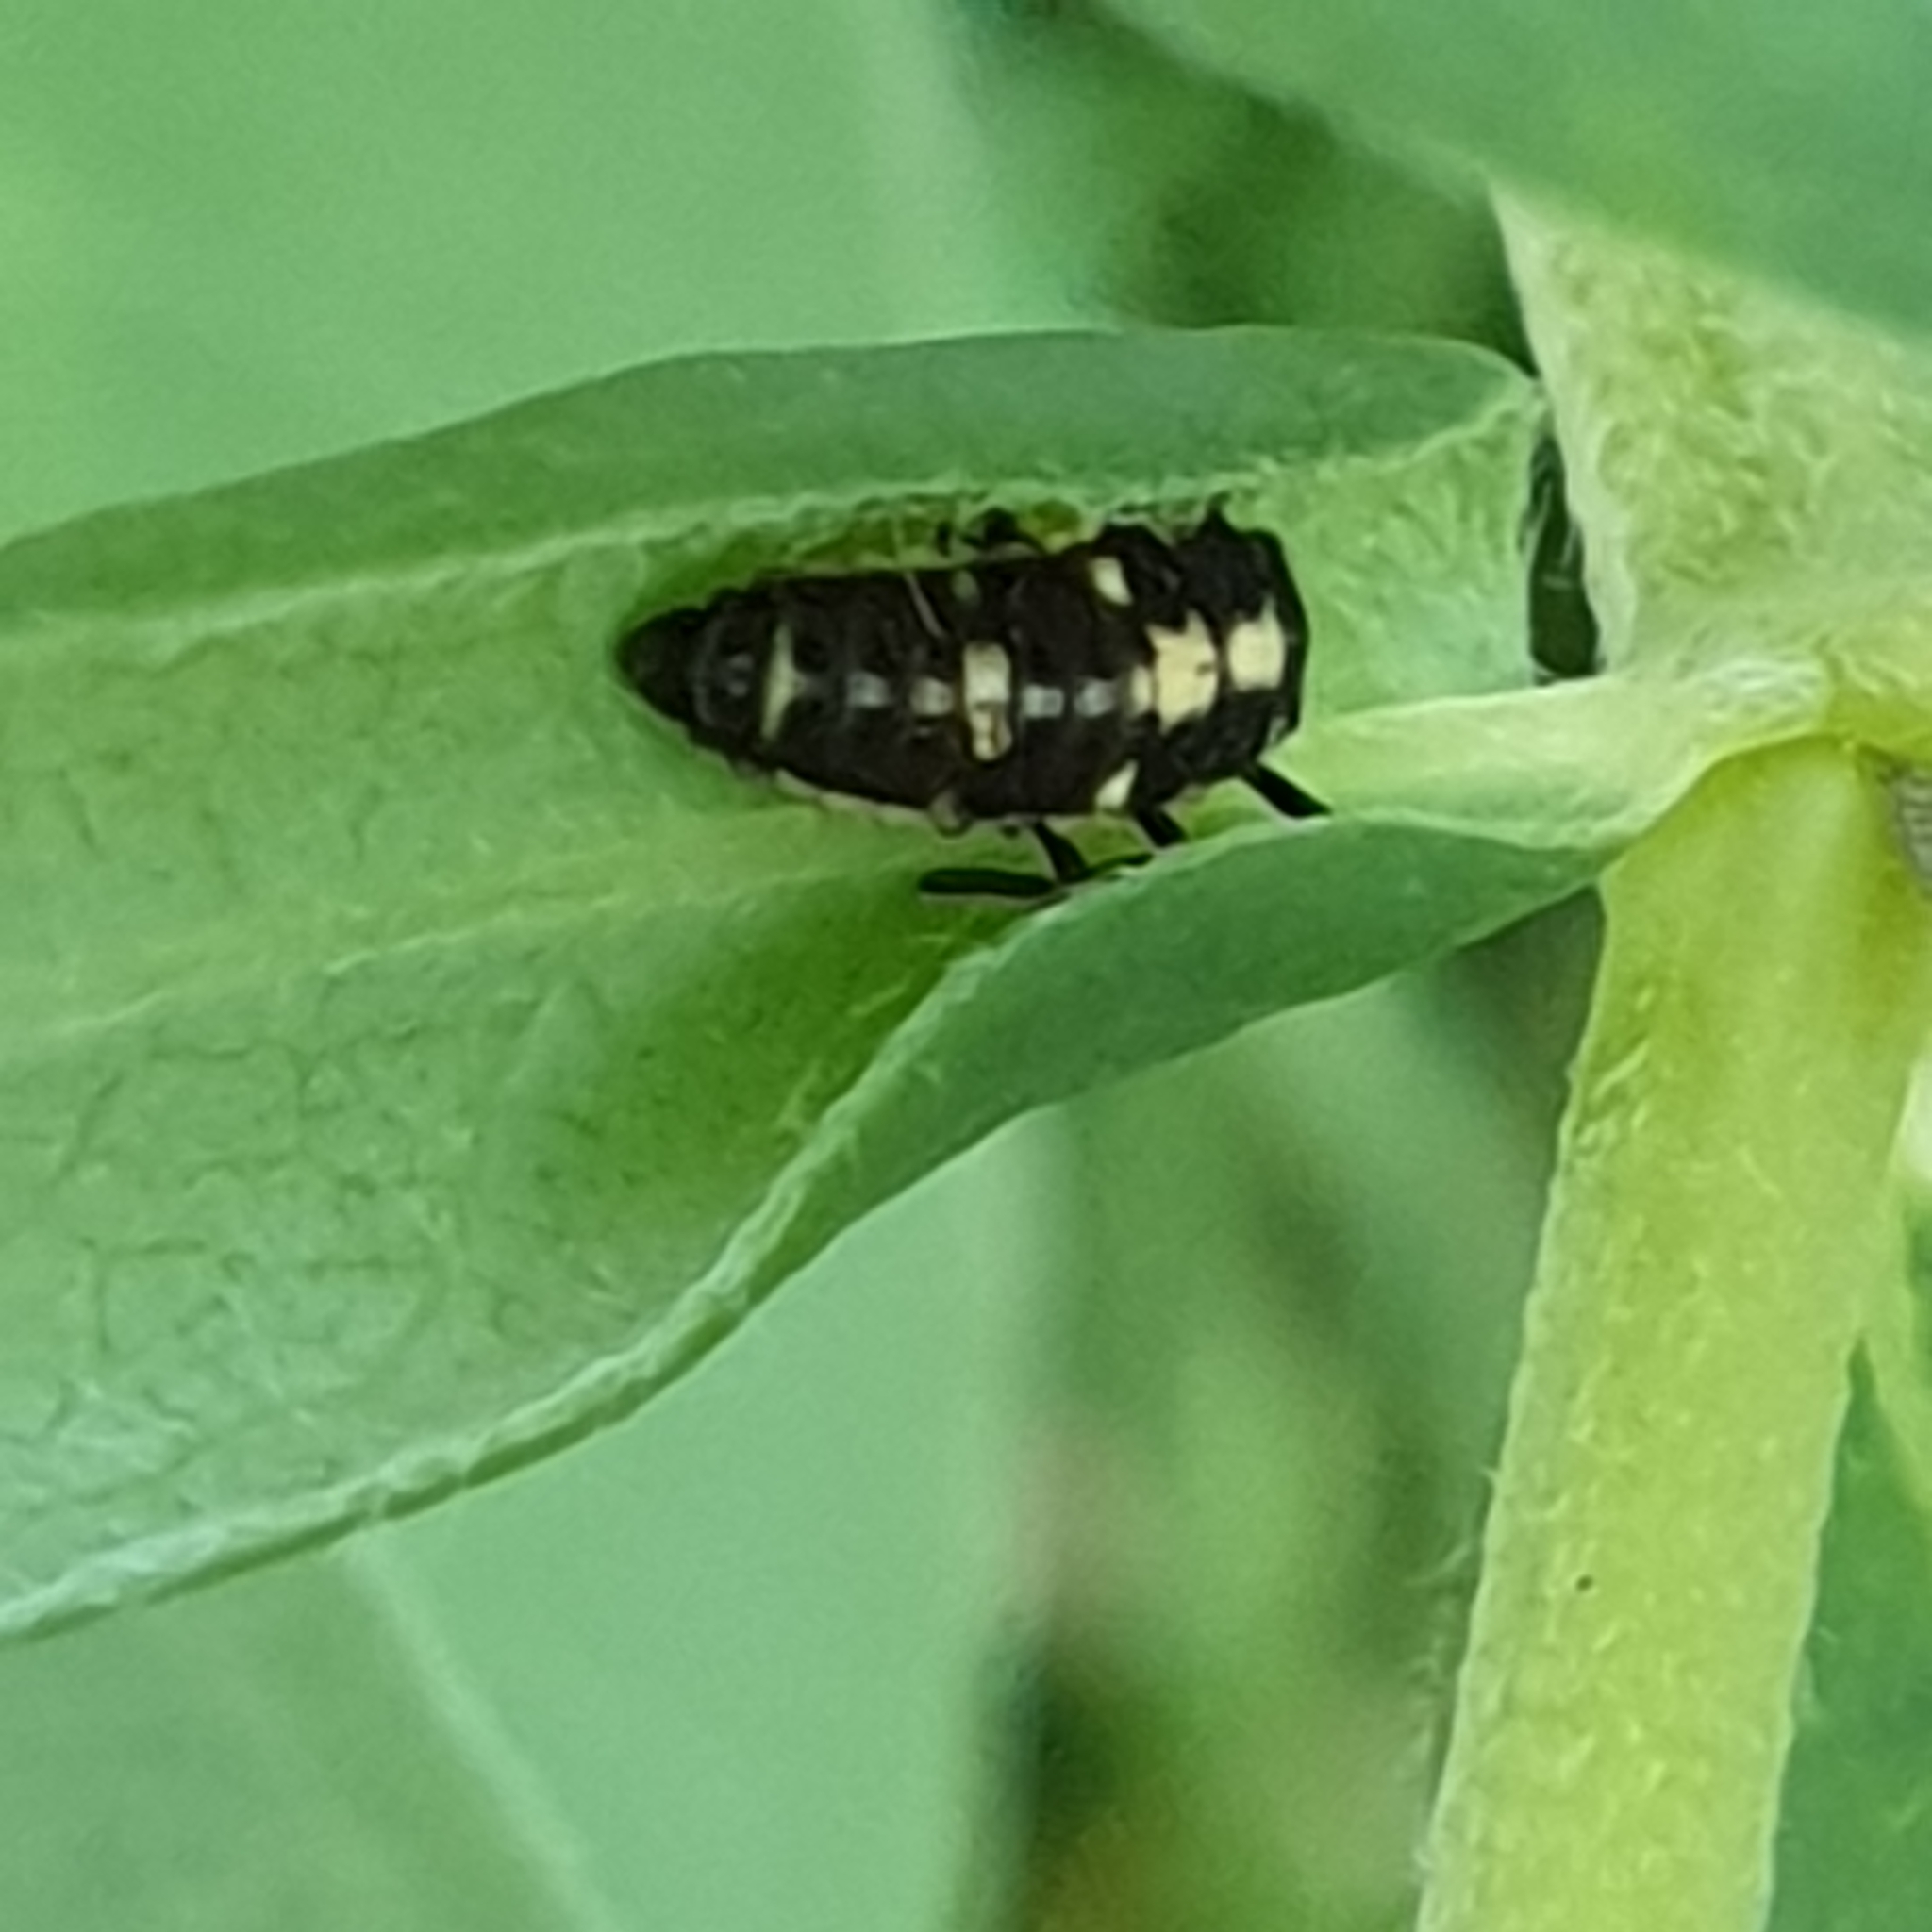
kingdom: Animalia
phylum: Arthropoda
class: Insecta
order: Coleoptera
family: Coccinellidae
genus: Propylaea
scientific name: Propylaea quatuordecimpunctata
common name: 14-spotted ladybird beetle
